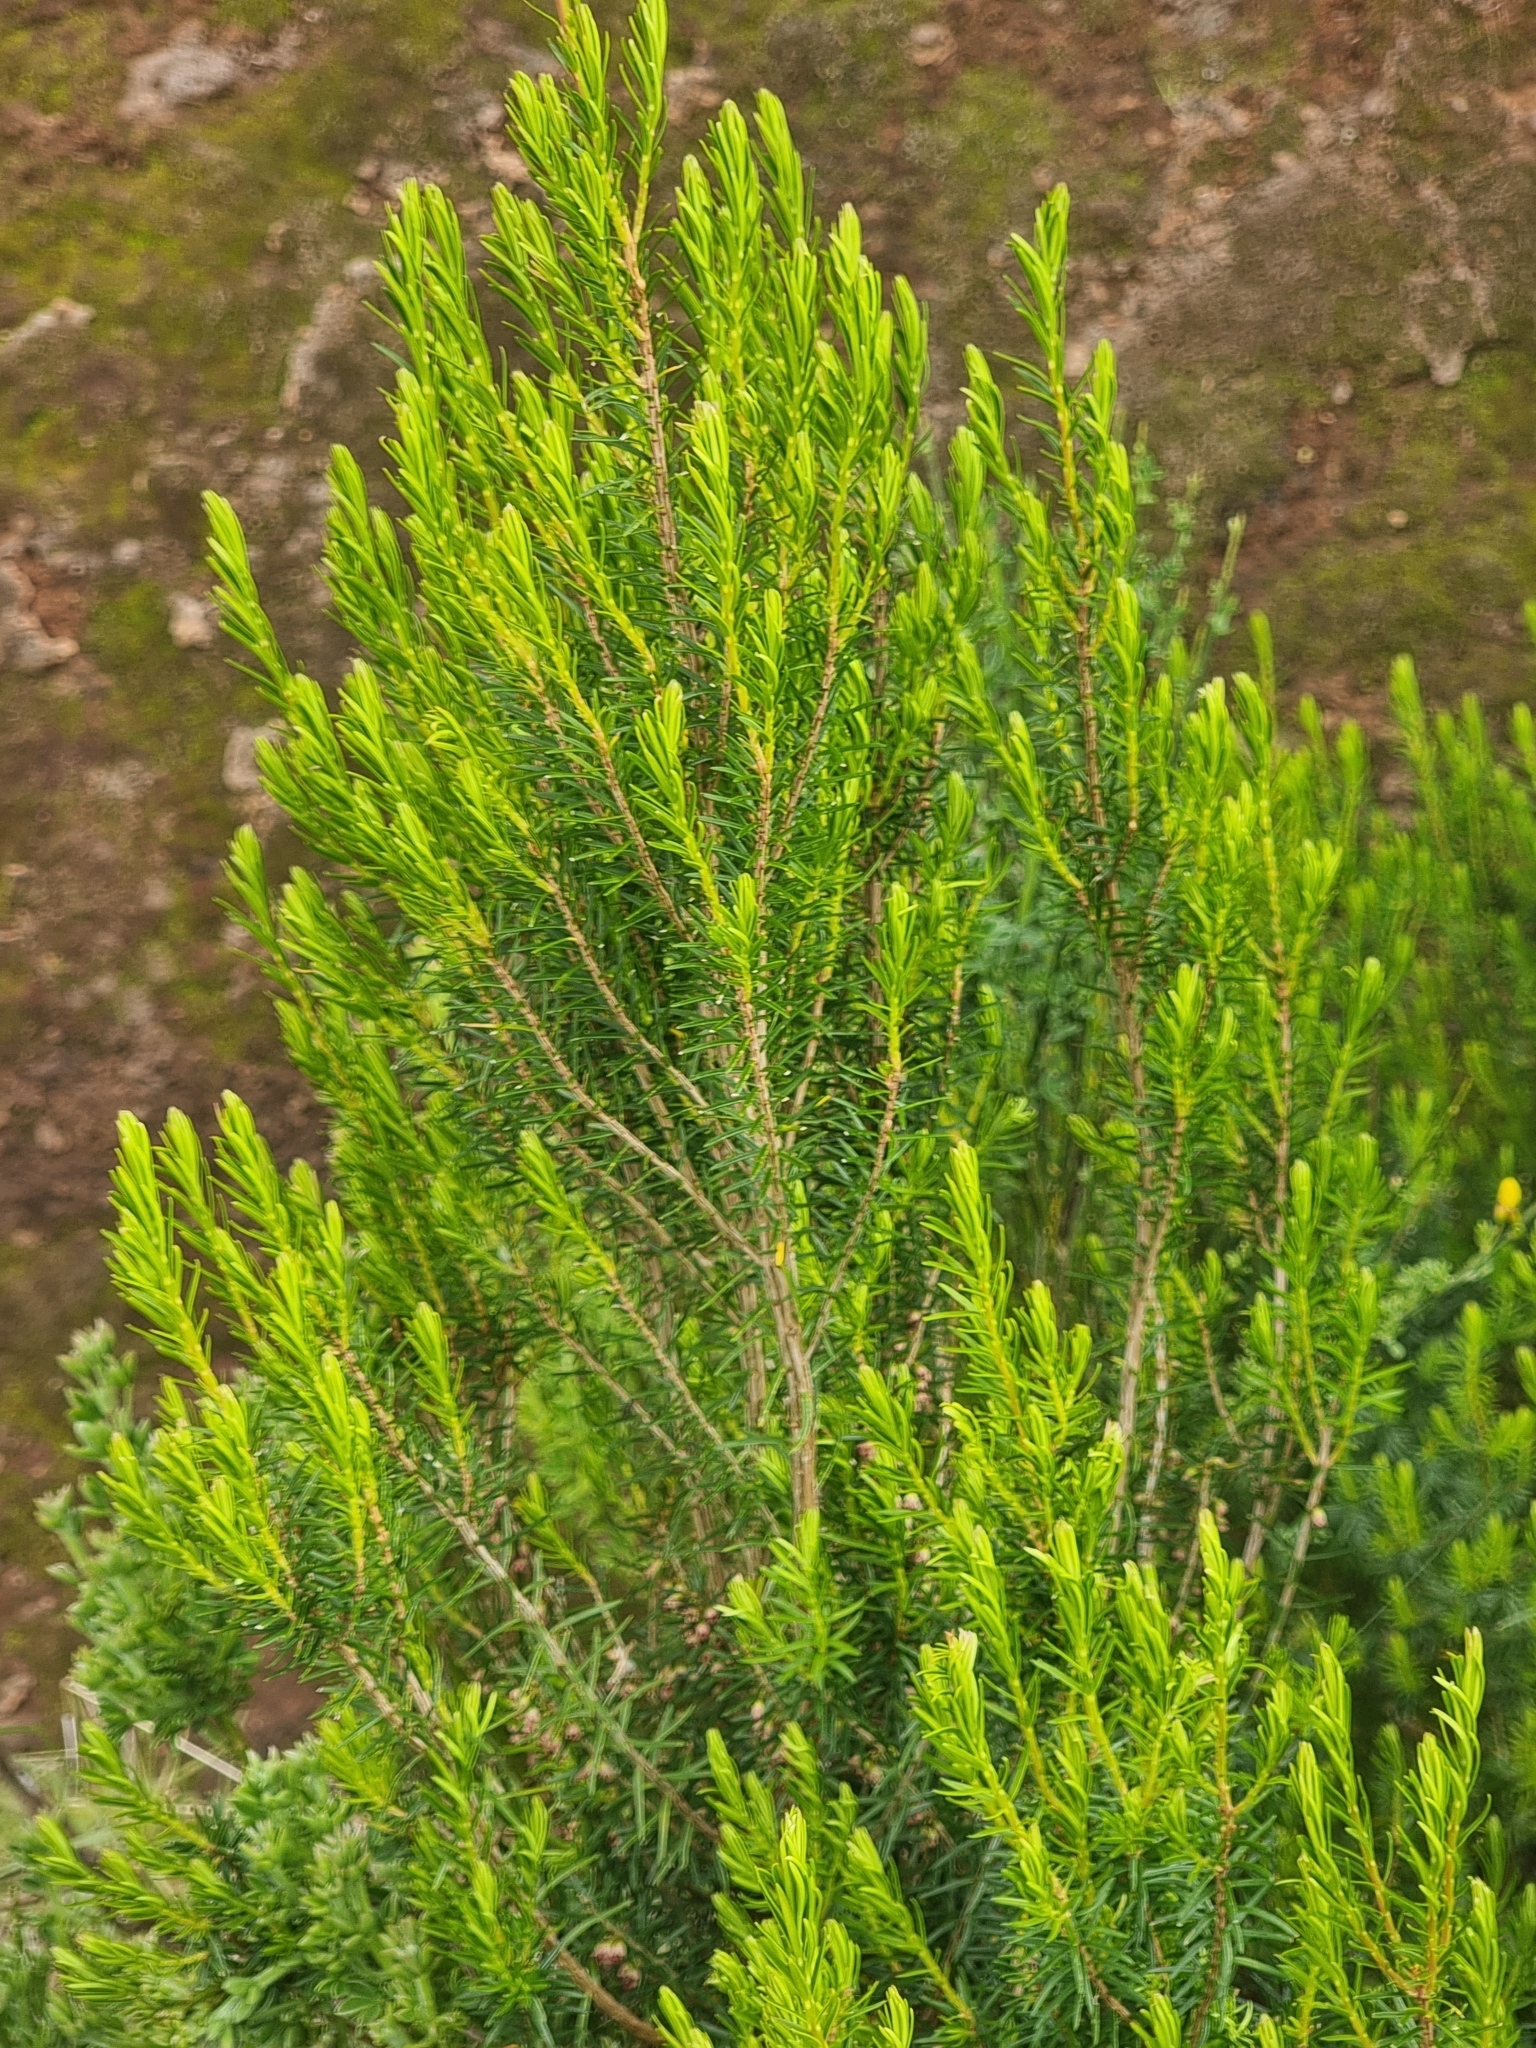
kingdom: Plantae
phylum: Tracheophyta
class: Magnoliopsida
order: Ericales
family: Ericaceae
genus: Erica
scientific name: Erica platycodon
